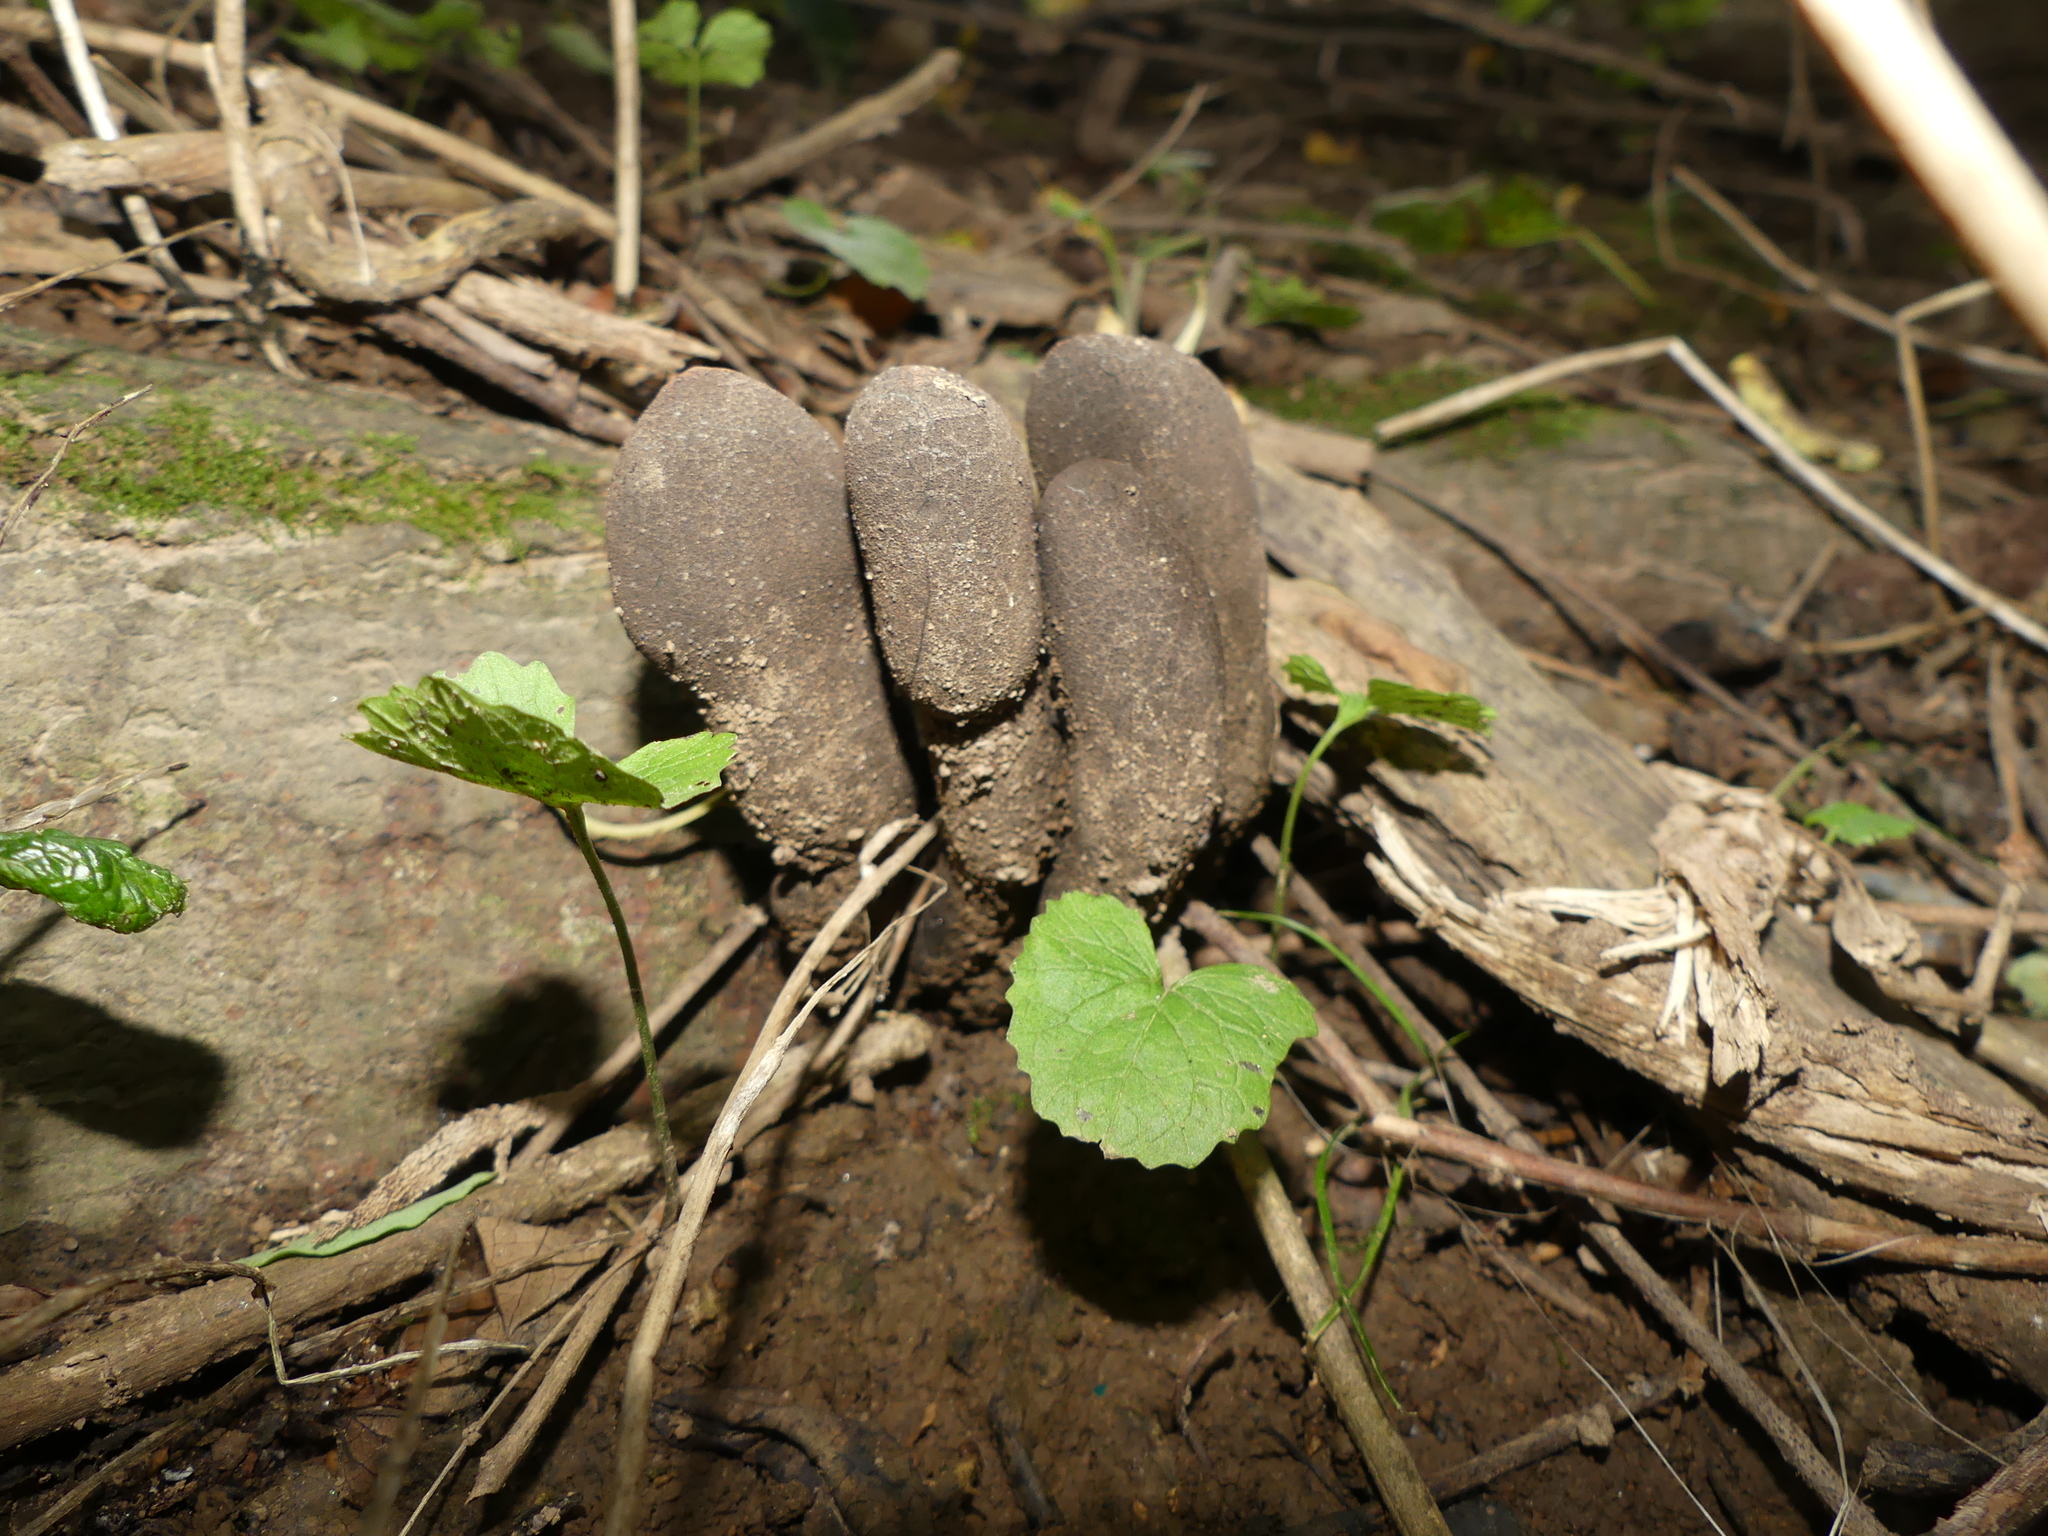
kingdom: Fungi
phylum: Ascomycota
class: Sordariomycetes
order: Xylariales
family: Xylariaceae
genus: Xylaria
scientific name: Xylaria polymorpha
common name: Dead man's fingers
